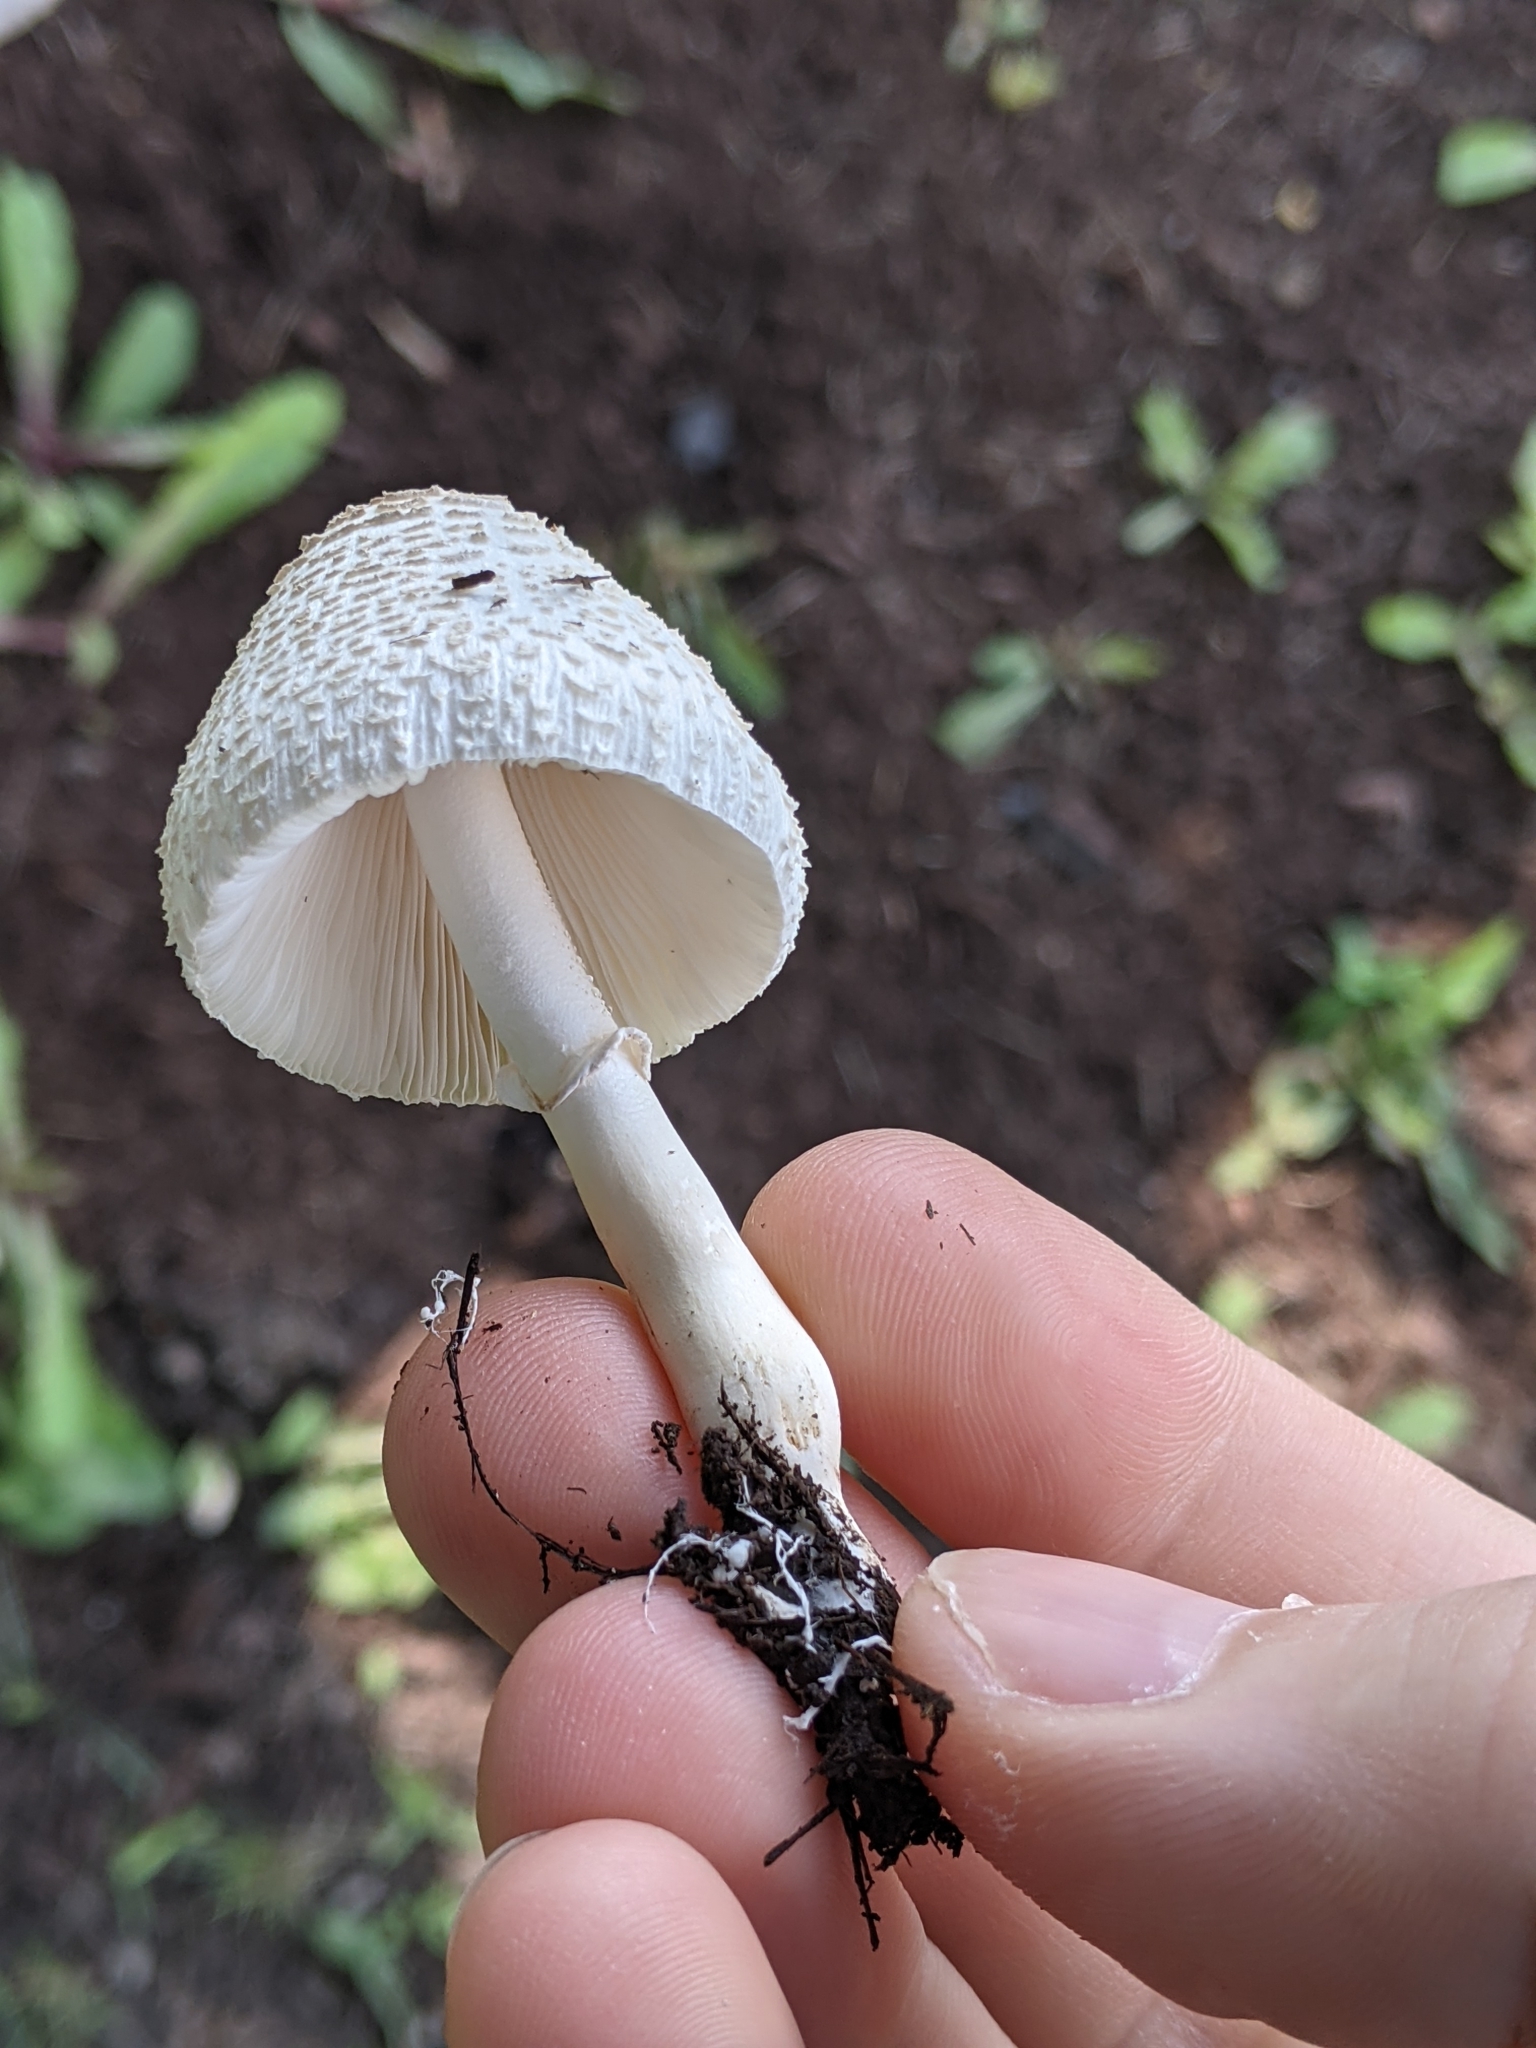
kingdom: Fungi
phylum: Basidiomycota
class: Agaricomycetes
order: Agaricales
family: Agaricaceae
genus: Leucocoprinus
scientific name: Leucocoprinus cepistipes
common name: Onion-stalk parasol
